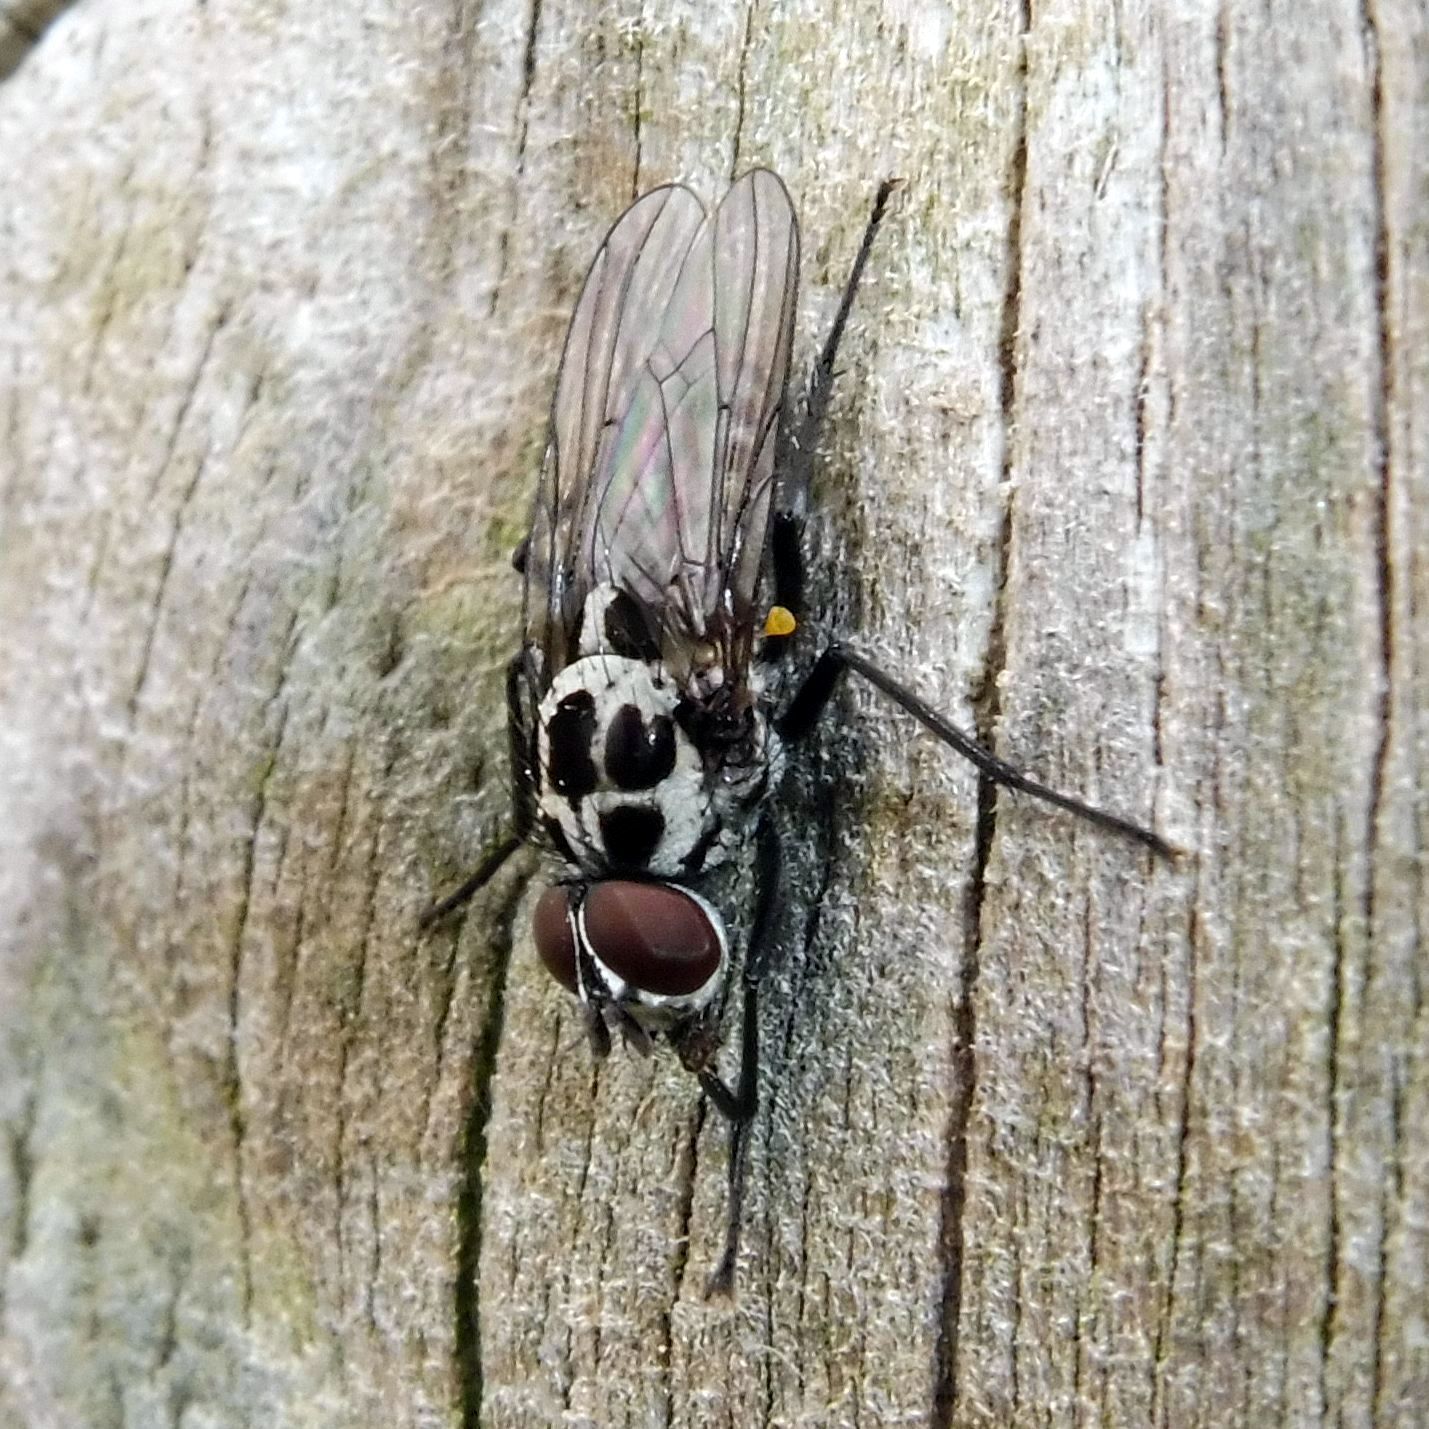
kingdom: Animalia
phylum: Arthropoda
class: Insecta
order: Diptera
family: Anthomyiidae
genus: Anthomyia
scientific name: Anthomyia pluvialis
